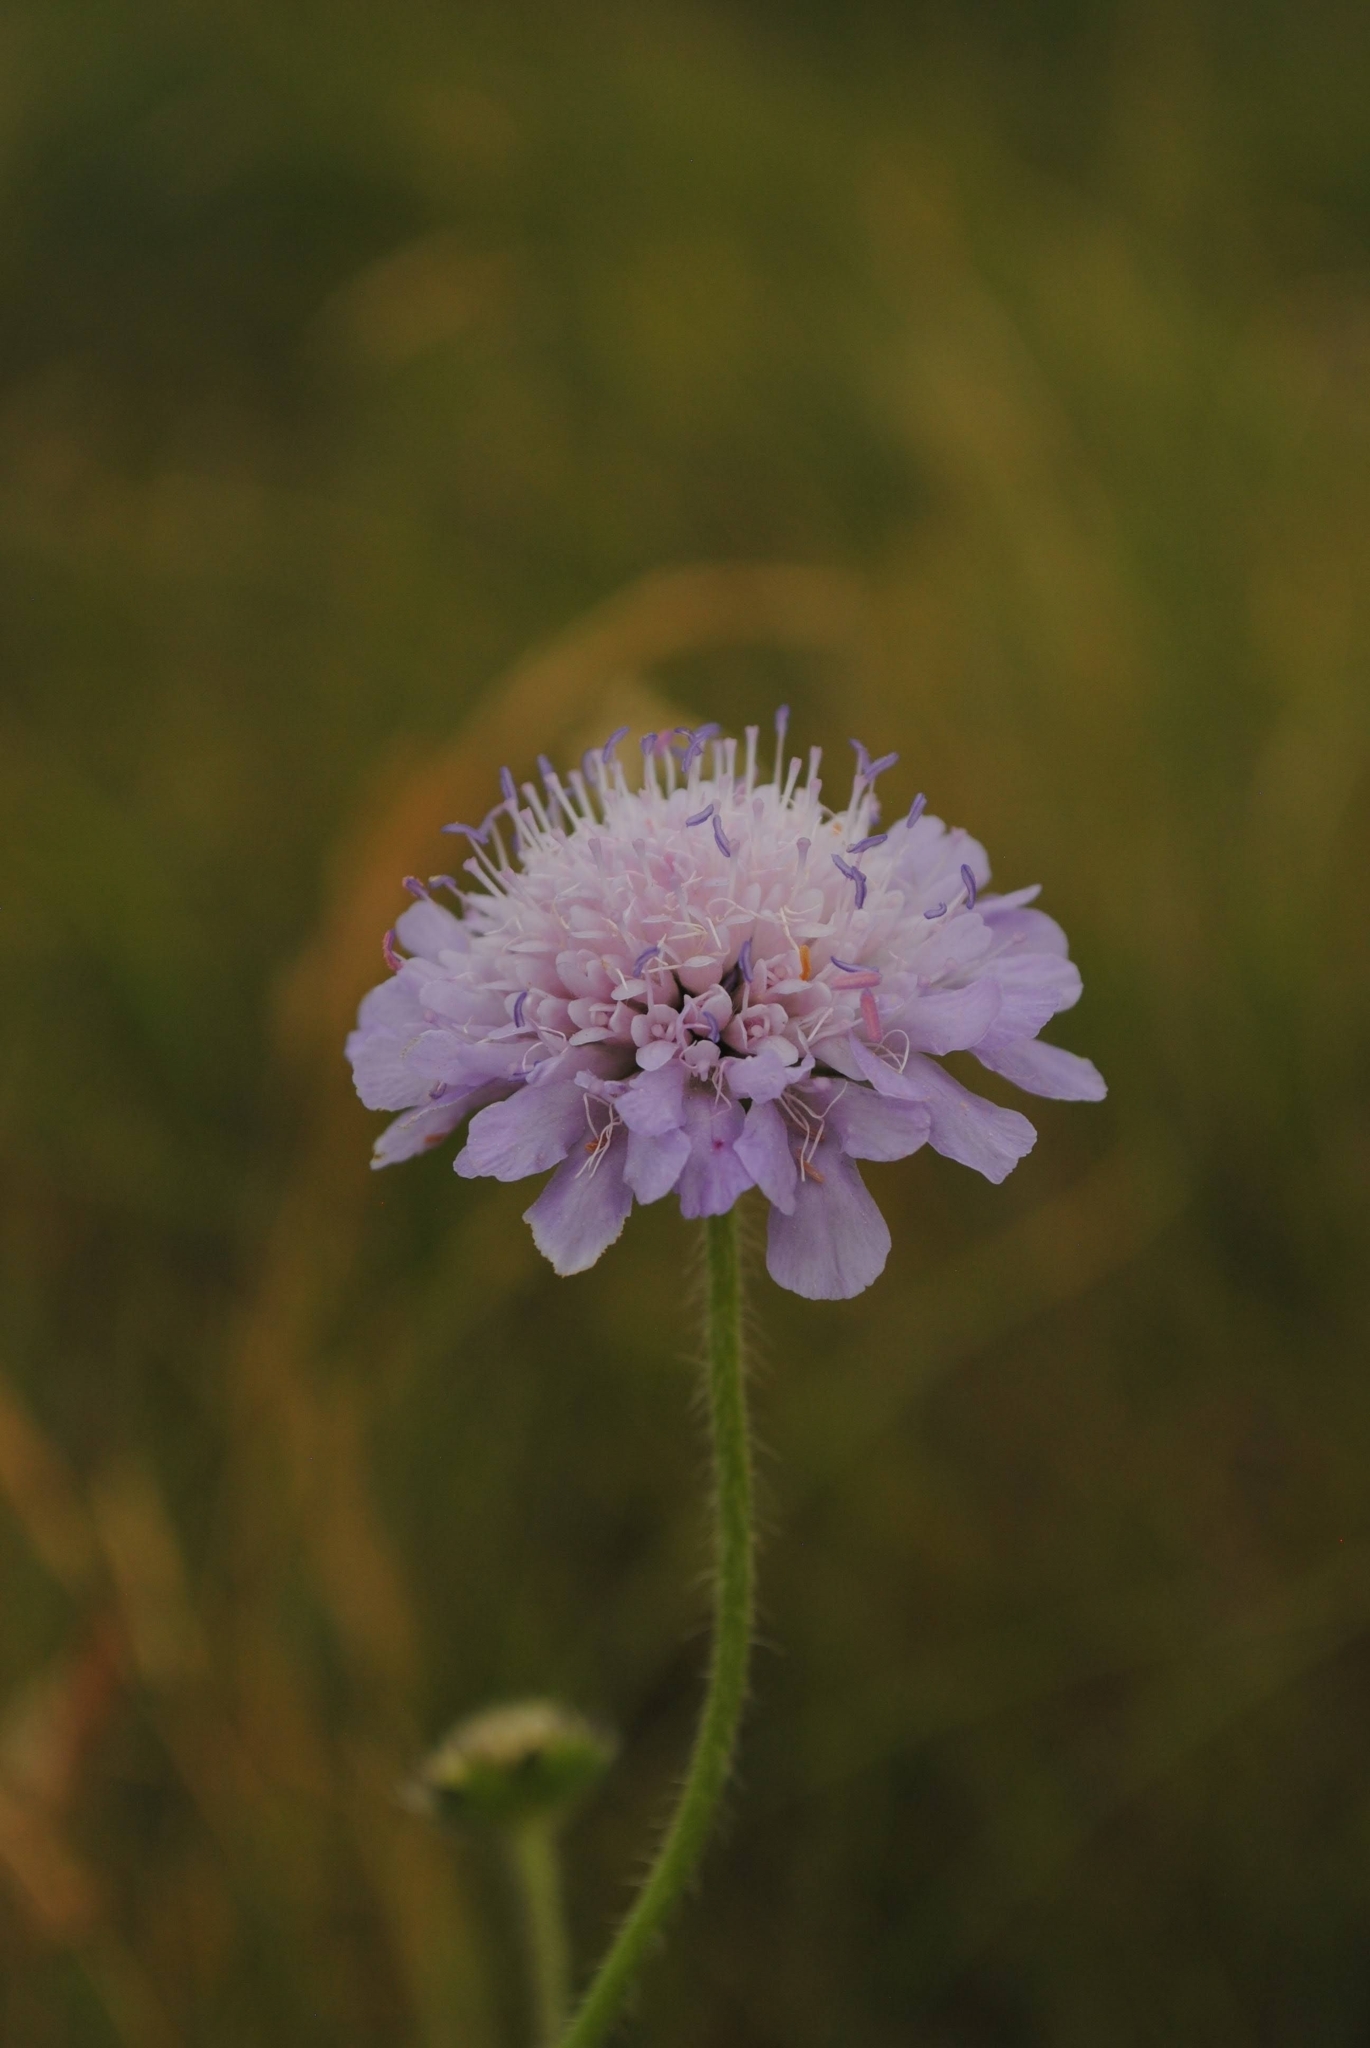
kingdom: Plantae
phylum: Tracheophyta
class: Magnoliopsida
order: Dipsacales
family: Caprifoliaceae
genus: Knautia
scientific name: Knautia arvensis
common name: Field scabiosa
